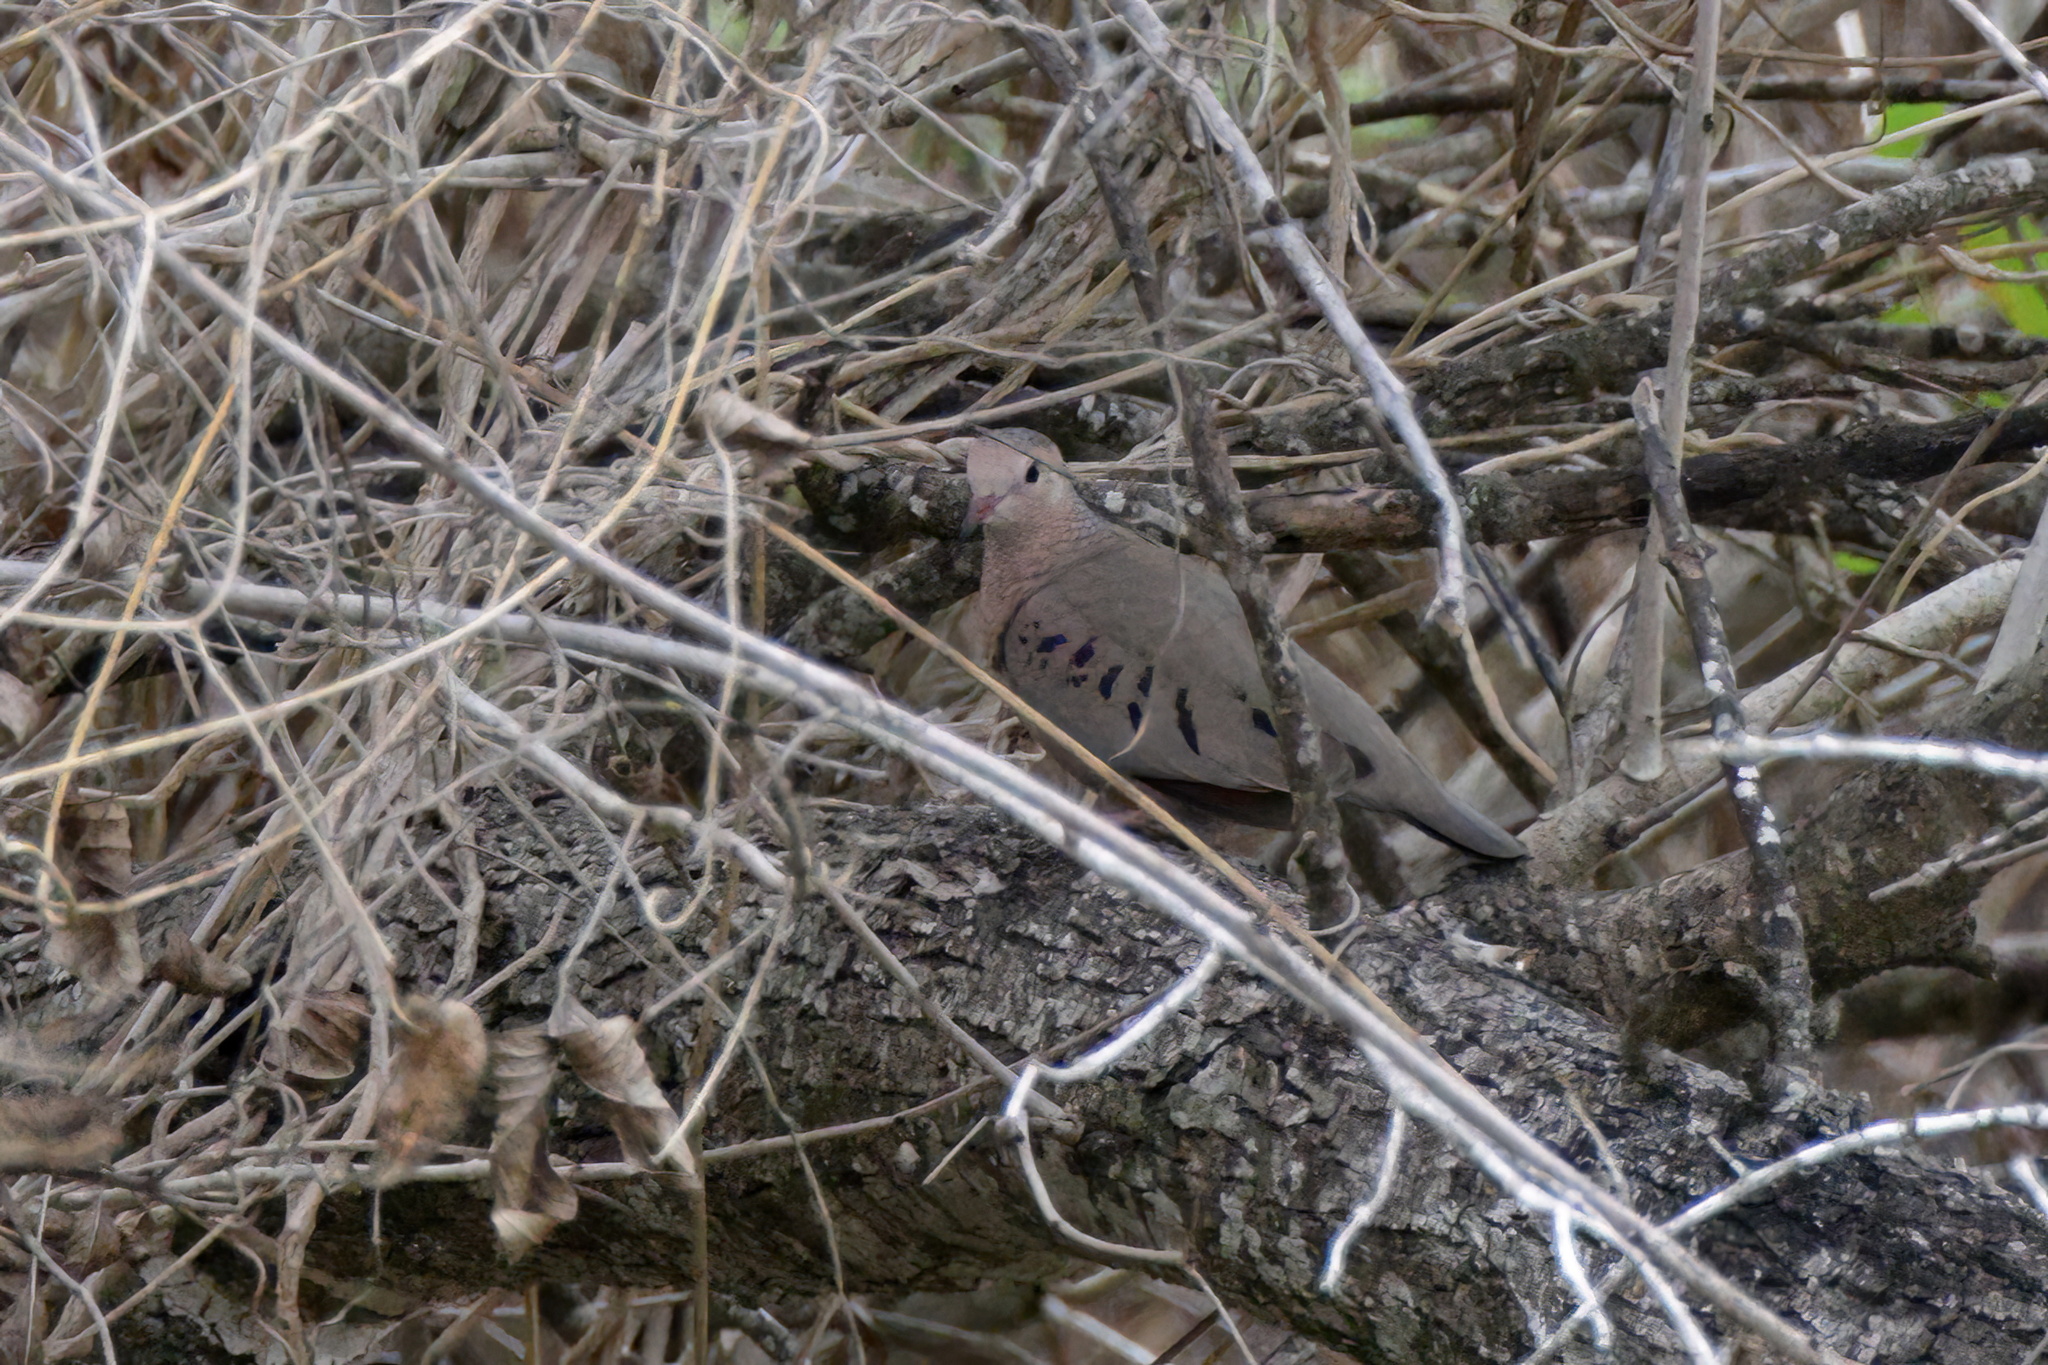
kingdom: Animalia
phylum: Chordata
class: Aves
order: Columbiformes
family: Columbidae
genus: Columbina
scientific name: Columbina passerina
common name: Common ground-dove
